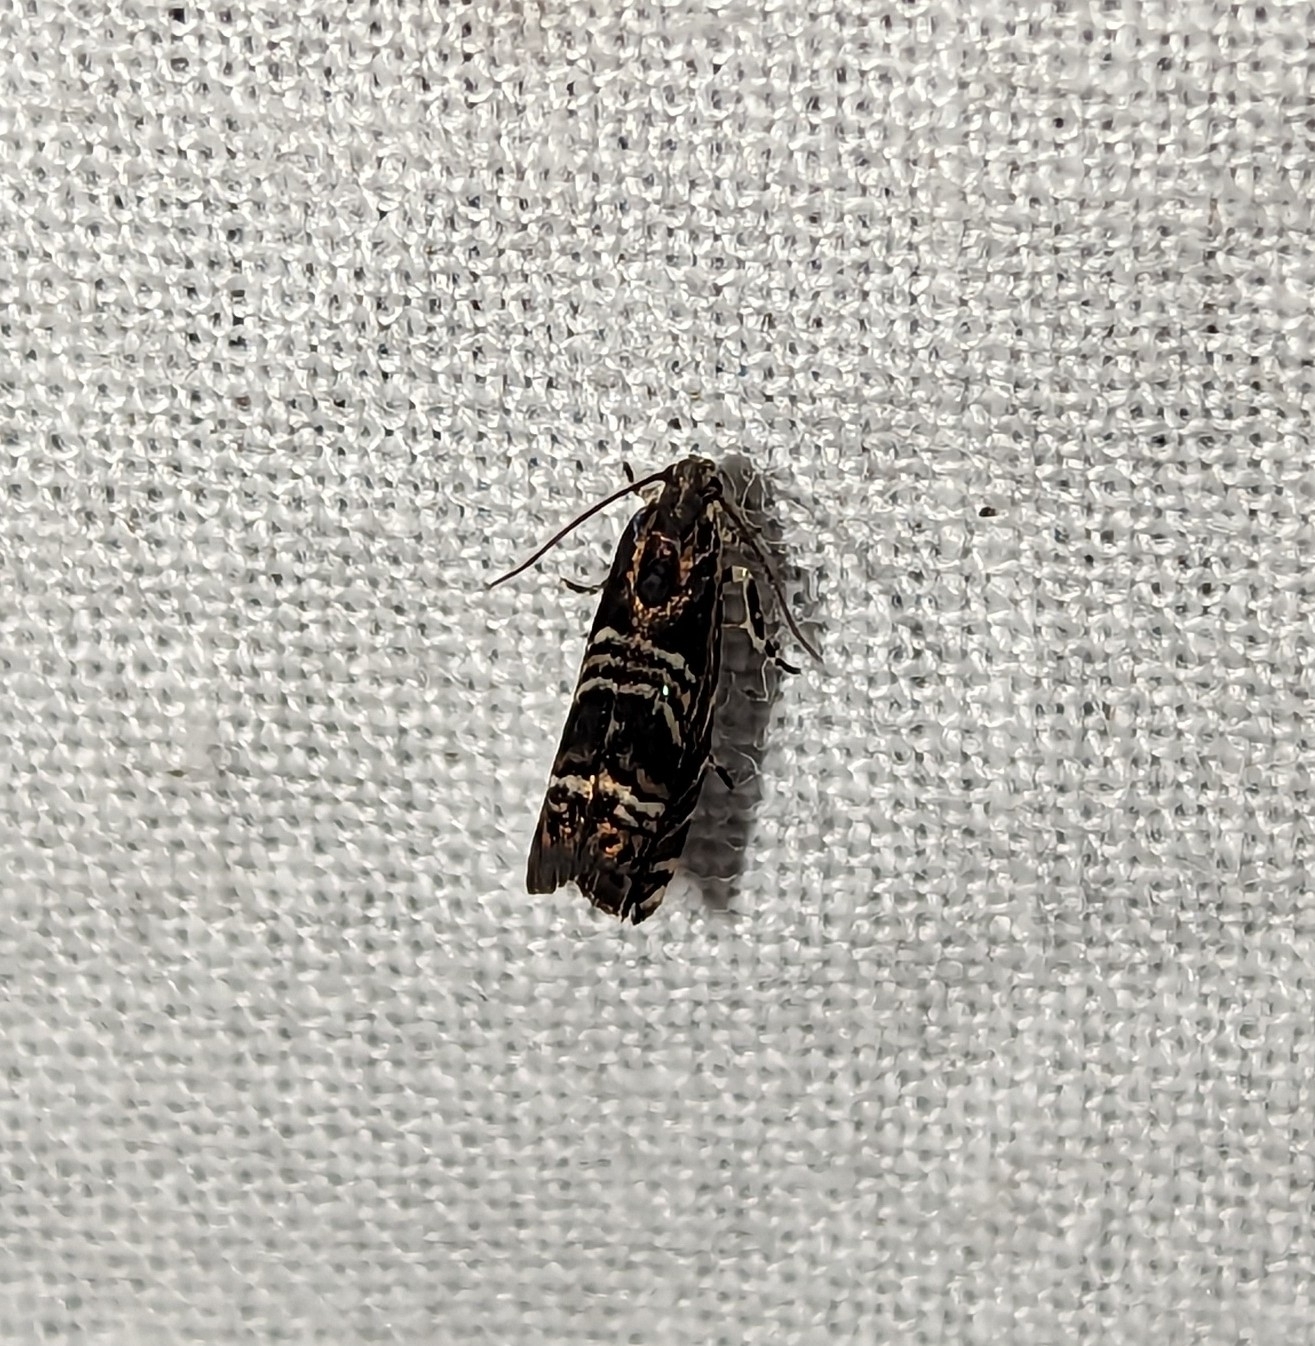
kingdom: Animalia
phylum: Arthropoda
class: Insecta
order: Lepidoptera
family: Tortricidae
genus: Thaumatographa
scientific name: Thaumatographa youngiella
